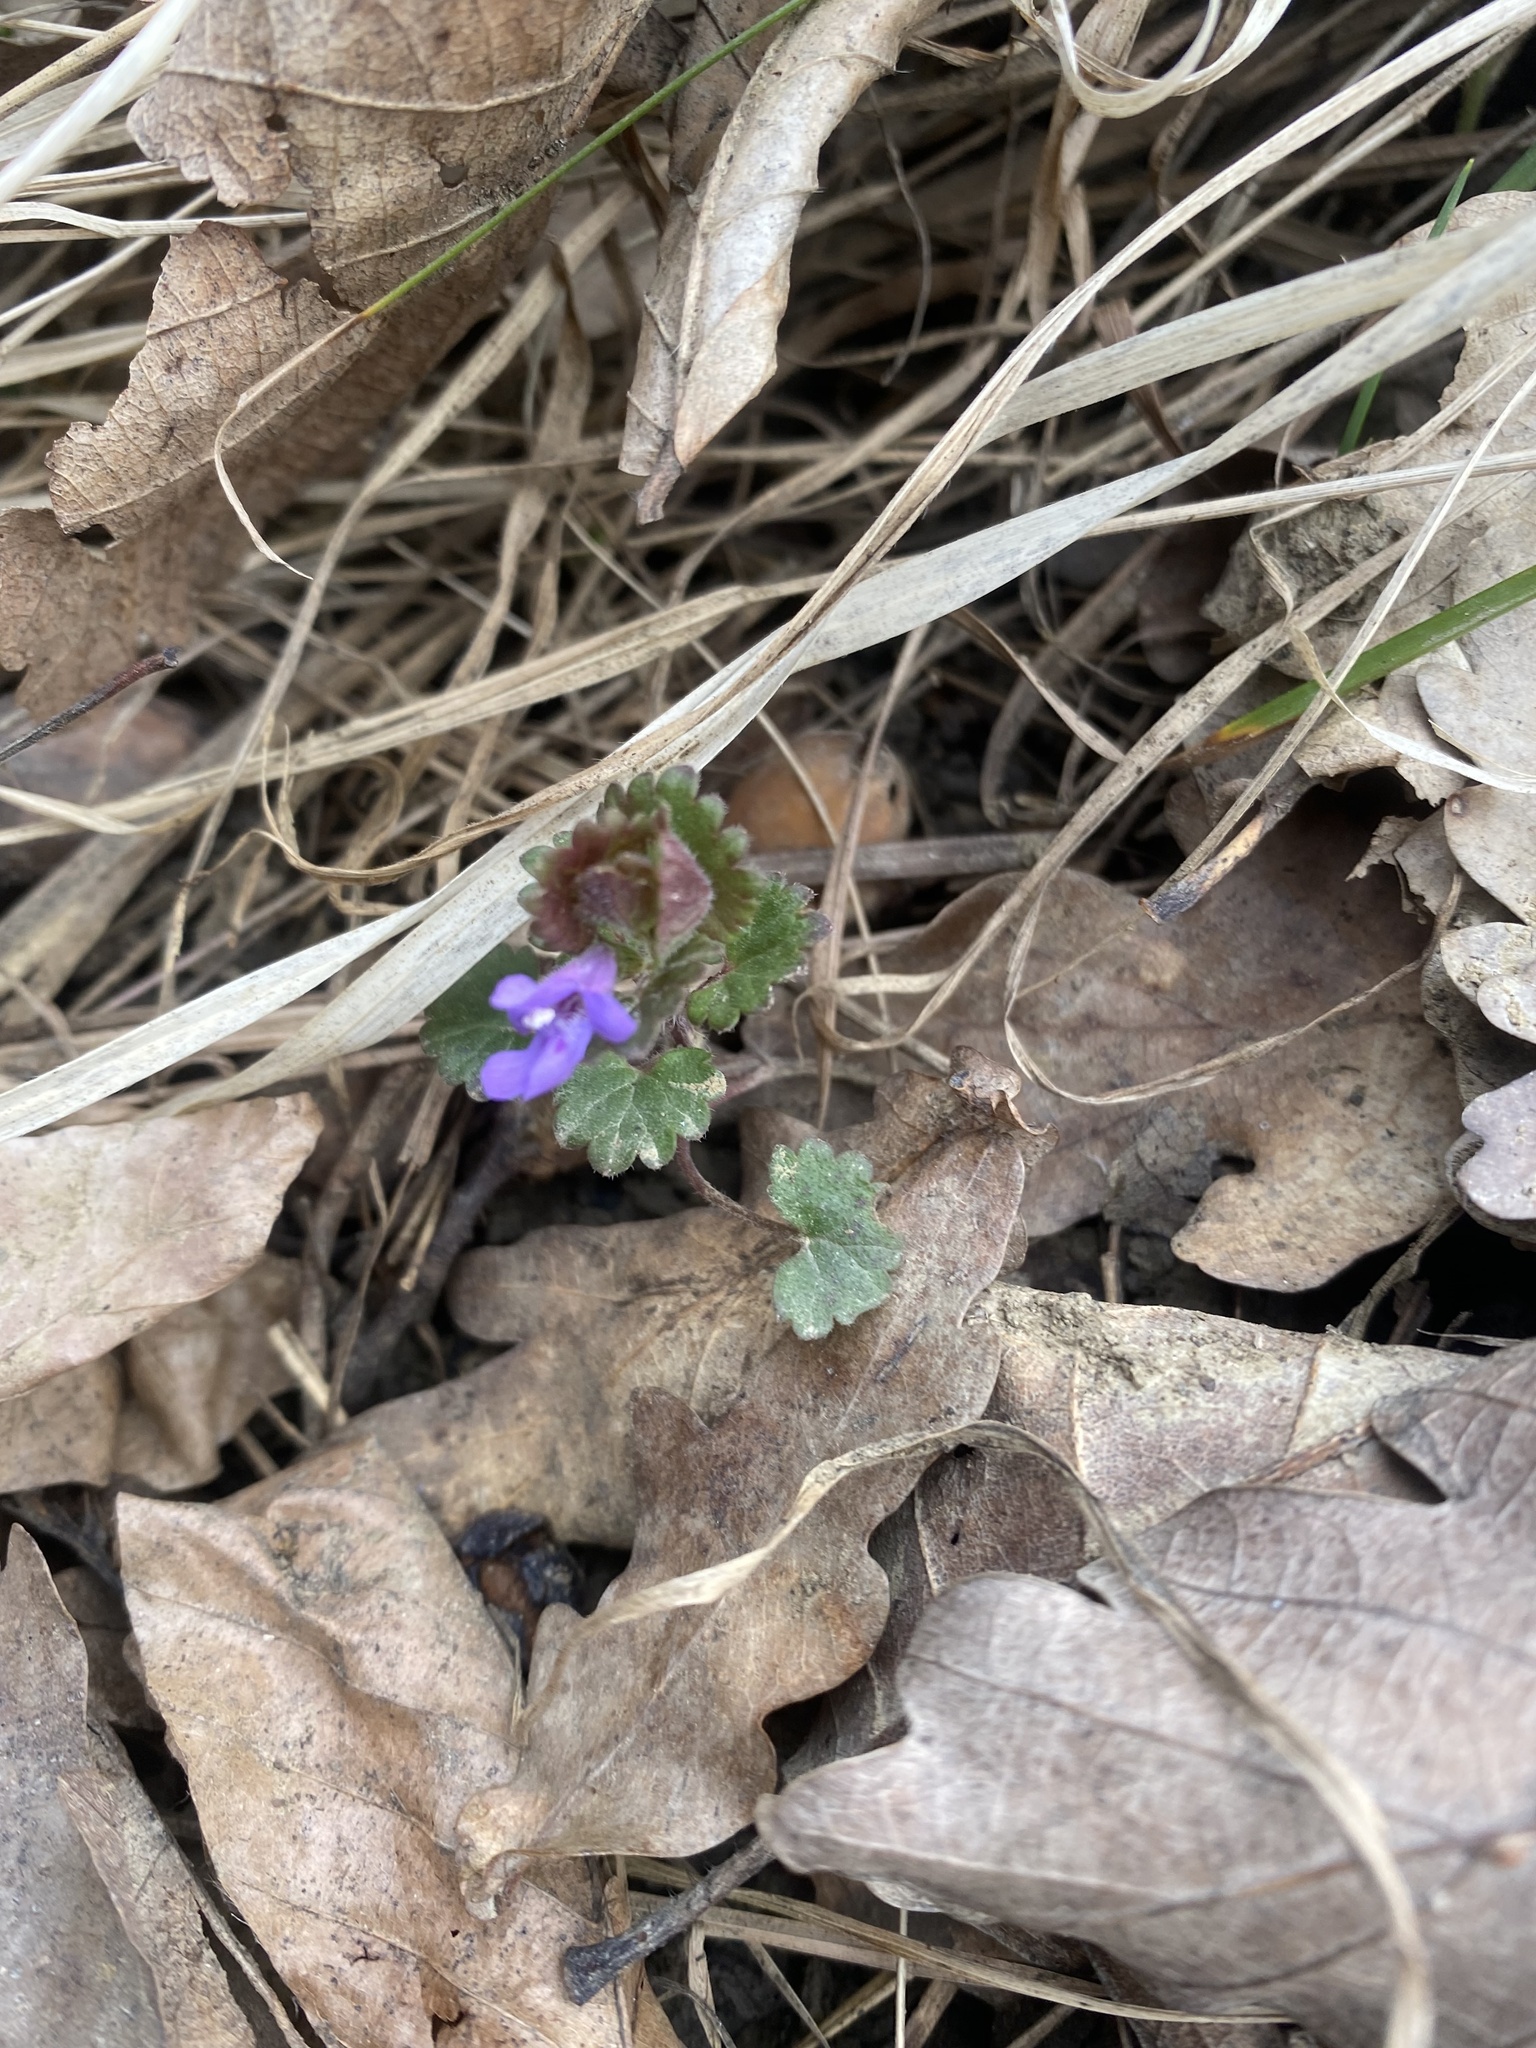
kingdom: Plantae
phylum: Tracheophyta
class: Magnoliopsida
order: Lamiales
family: Lamiaceae
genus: Glechoma
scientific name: Glechoma hederacea
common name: Ground ivy
